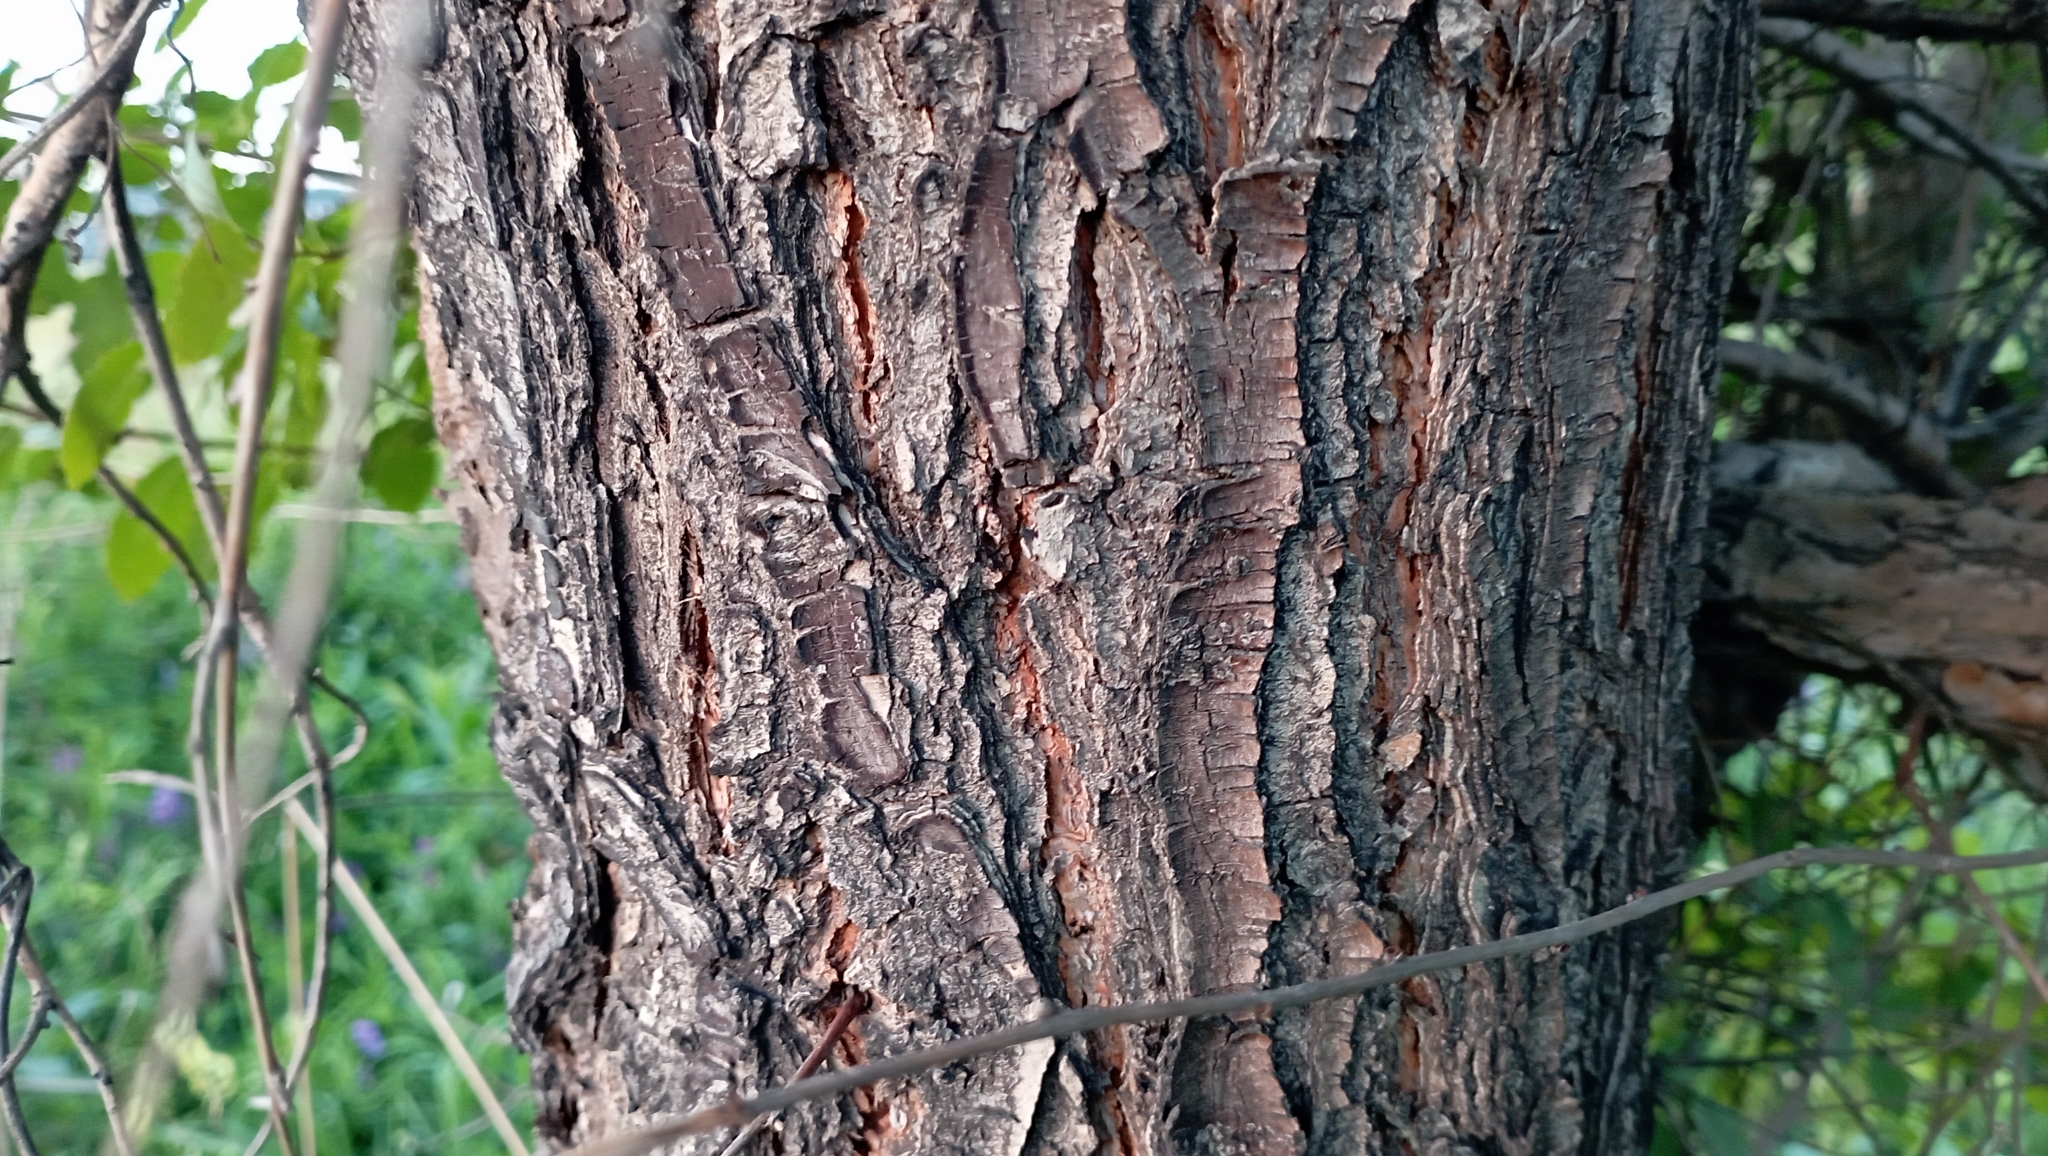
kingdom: Plantae
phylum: Tracheophyta
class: Magnoliopsida
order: Rosales
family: Ulmaceae
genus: Ulmus
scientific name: Ulmus pumila
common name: Siberian elm
